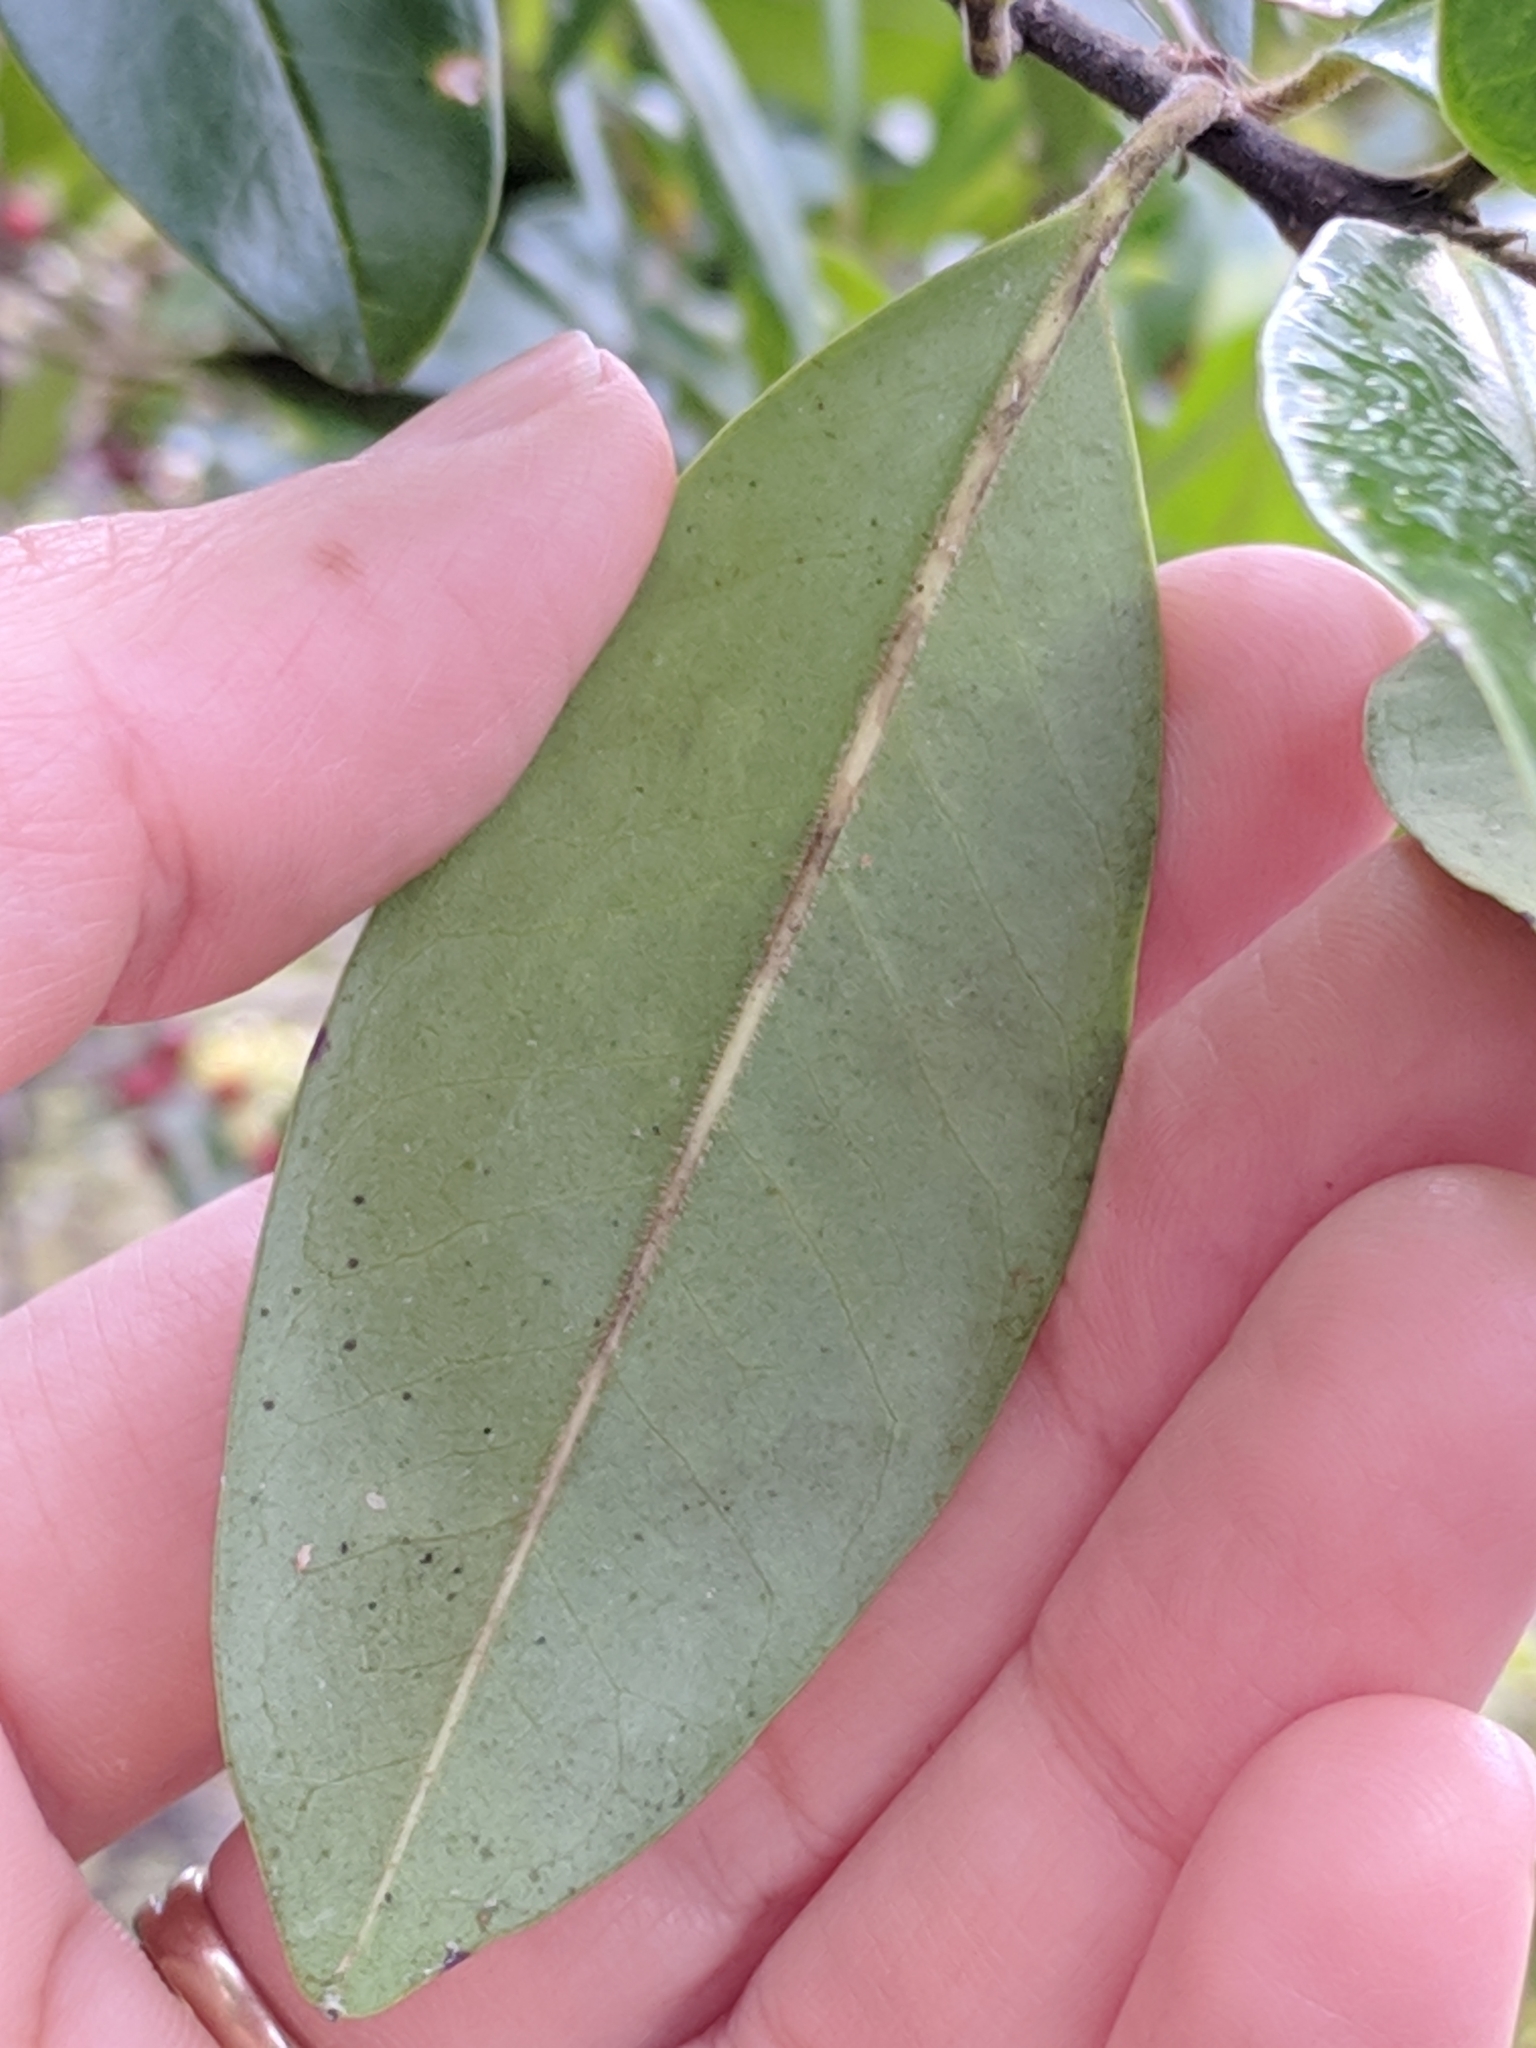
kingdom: Plantae
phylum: Tracheophyta
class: Magnoliopsida
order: Aquifoliales
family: Aquifoliaceae
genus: Ilex
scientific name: Ilex cassine
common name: Dahoon
